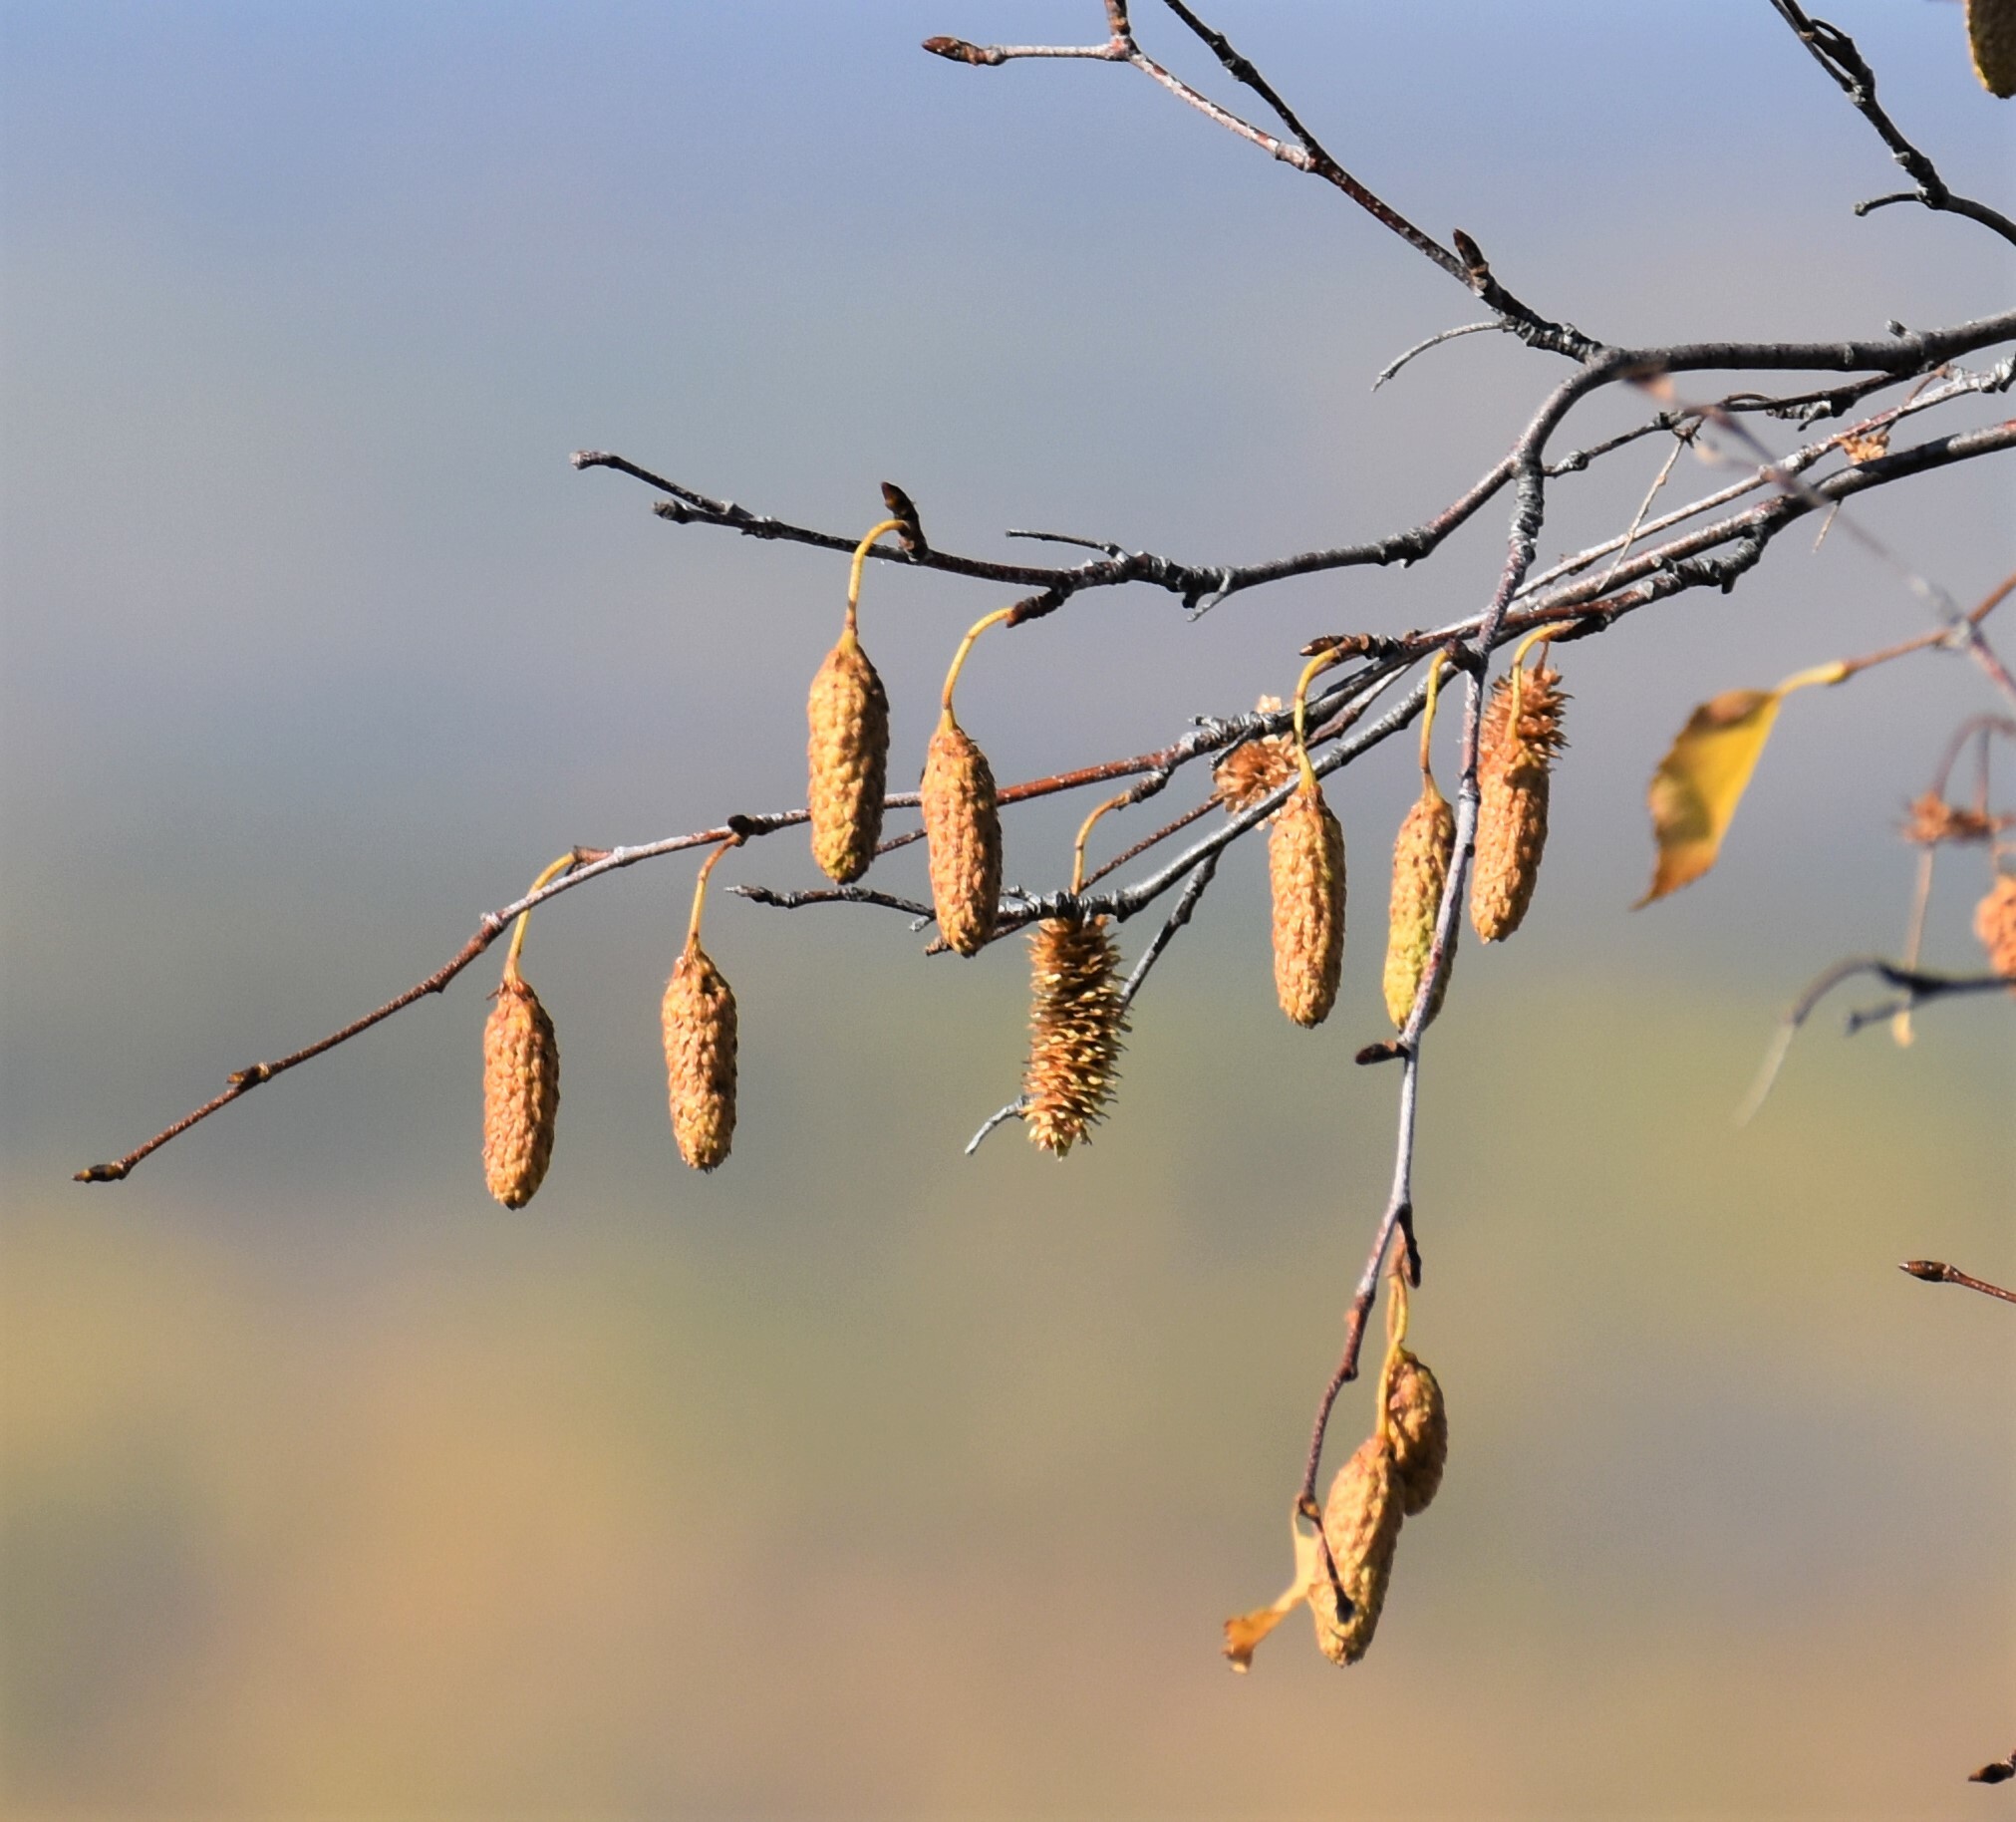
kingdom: Plantae
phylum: Tracheophyta
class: Magnoliopsida
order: Fagales
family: Betulaceae
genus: Betula
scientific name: Betula papyrifera
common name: Paper birch
